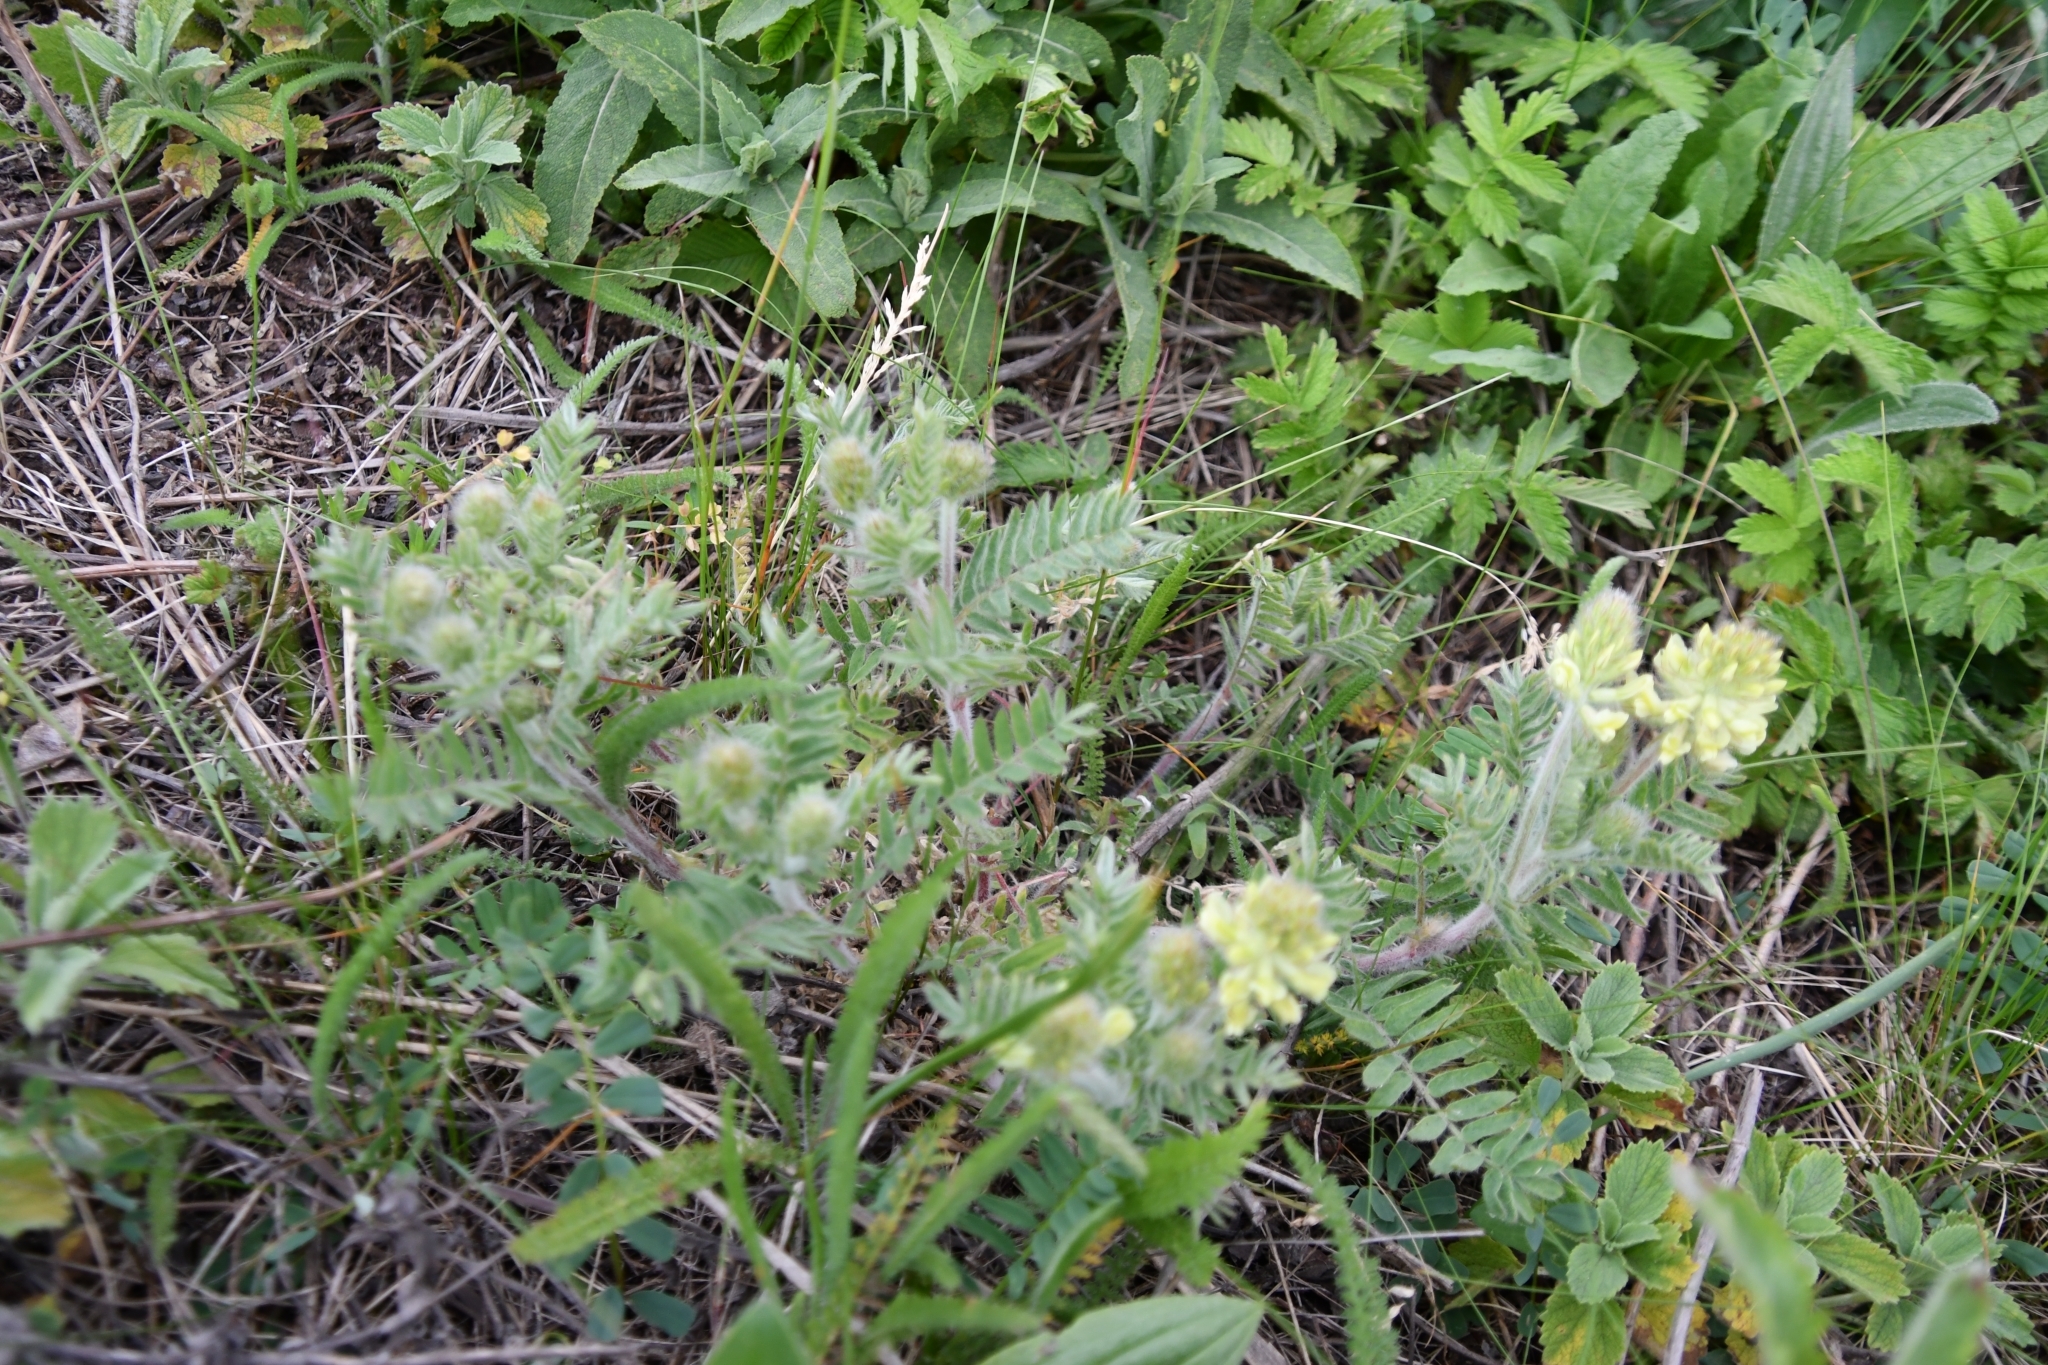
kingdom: Plantae
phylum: Tracheophyta
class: Magnoliopsida
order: Fabales
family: Fabaceae
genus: Oxytropis
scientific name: Oxytropis pilosa
